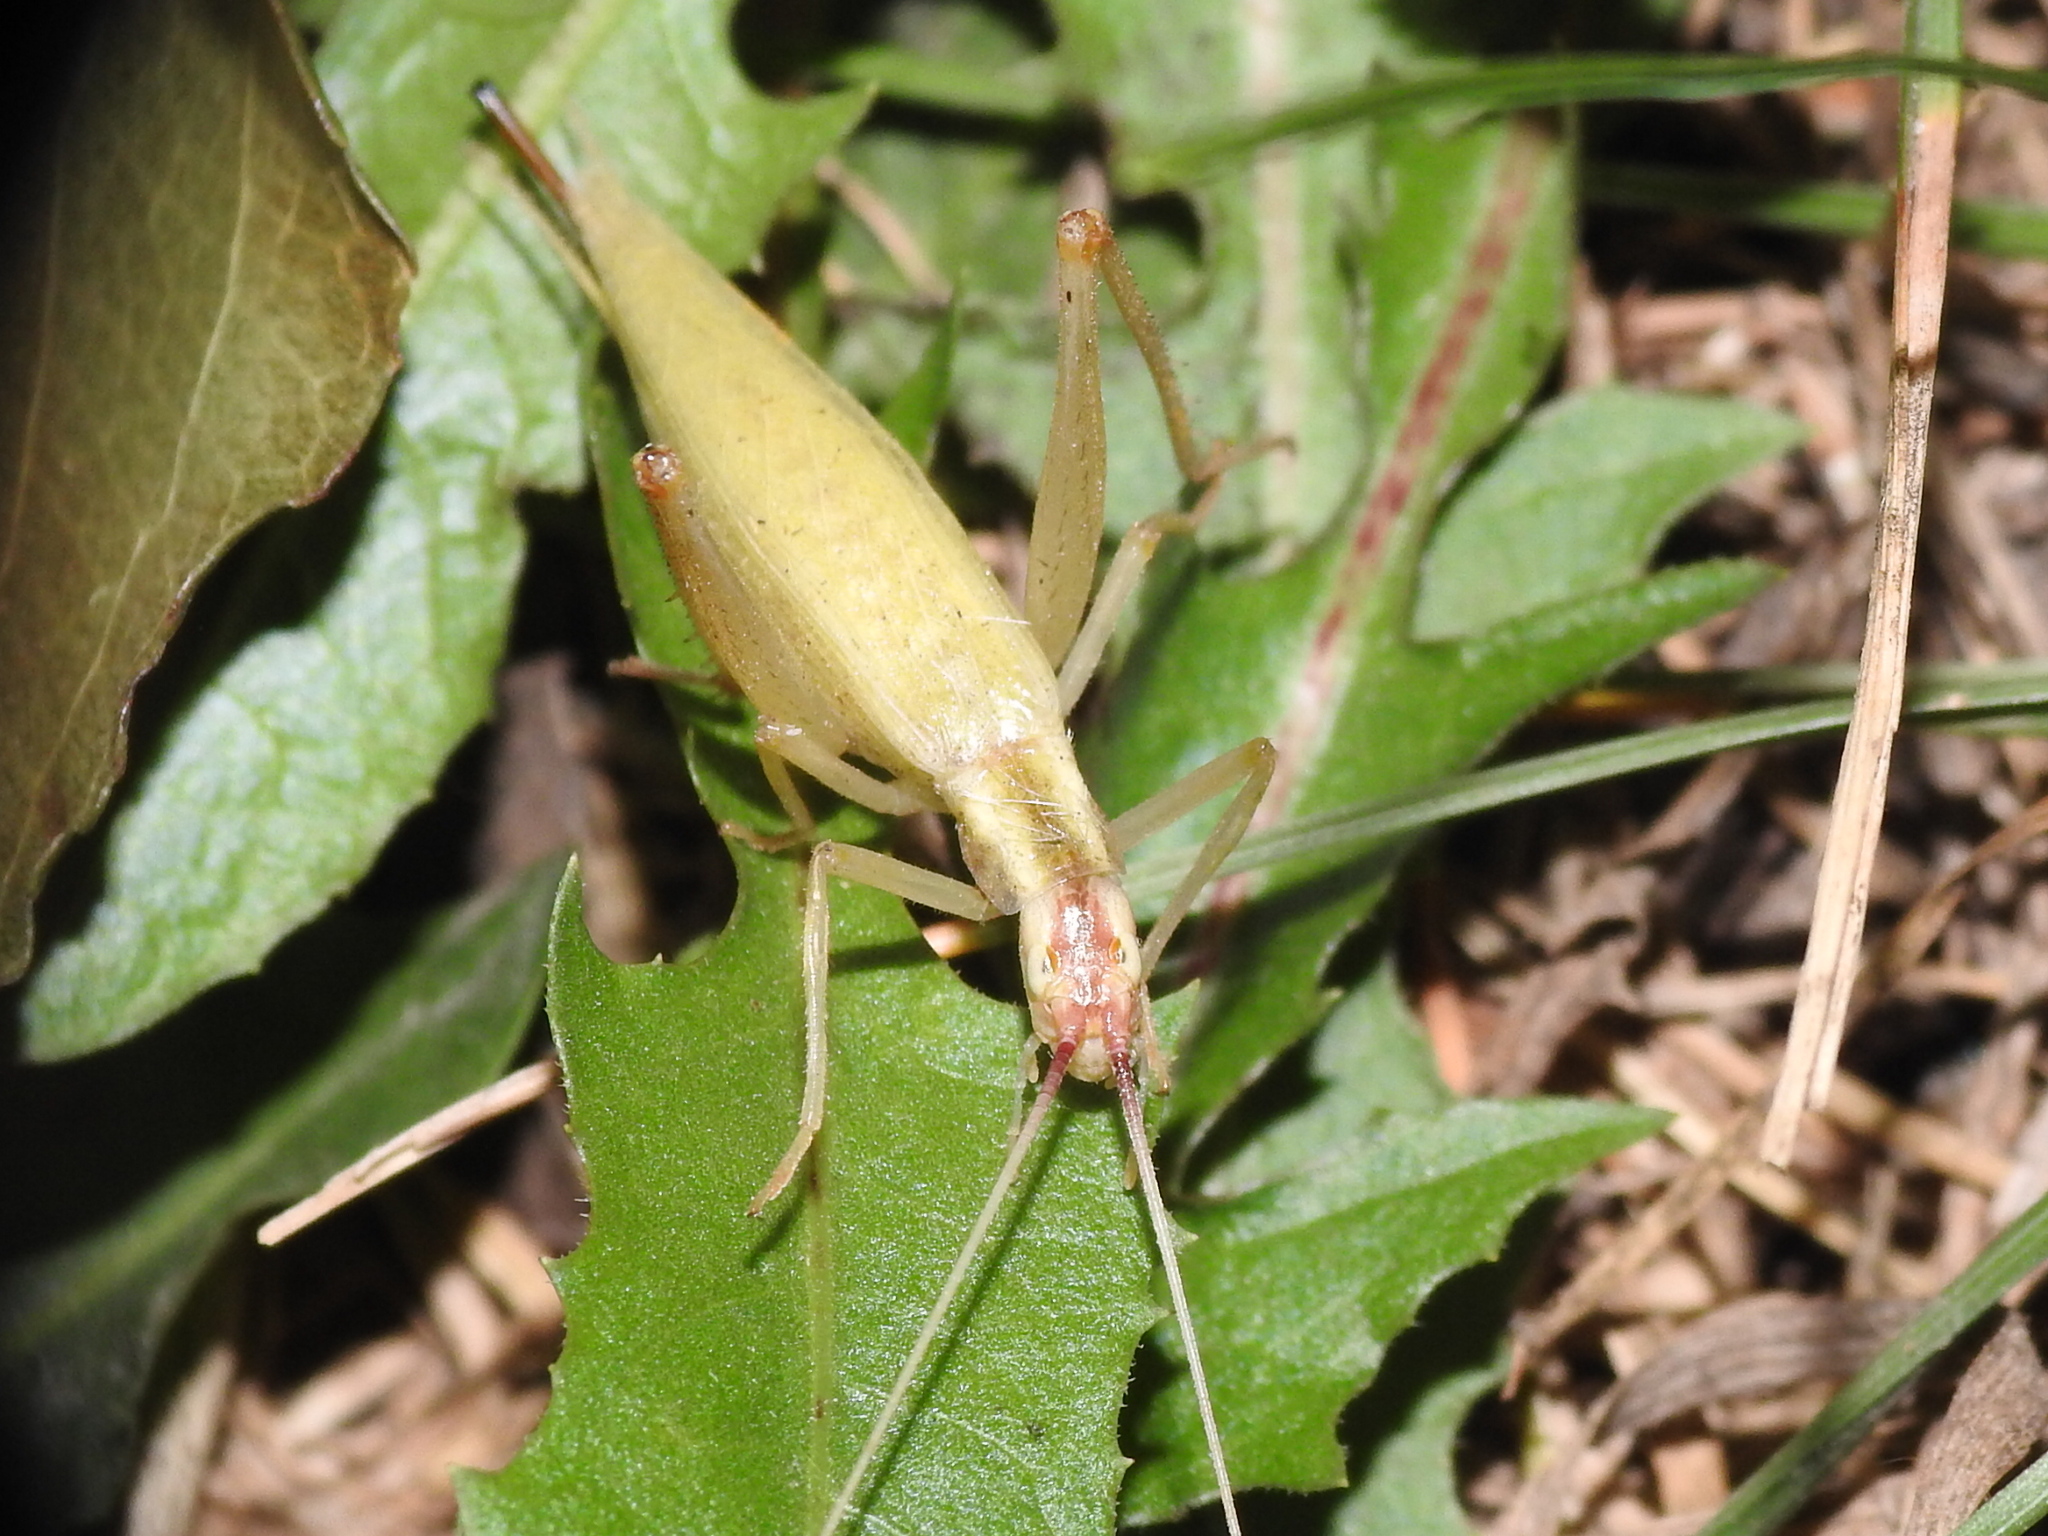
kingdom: Animalia
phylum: Arthropoda
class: Insecta
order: Orthoptera
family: Gryllidae
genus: Oecanthus
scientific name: Oecanthus latipennis
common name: Broad-winged tree cricket
